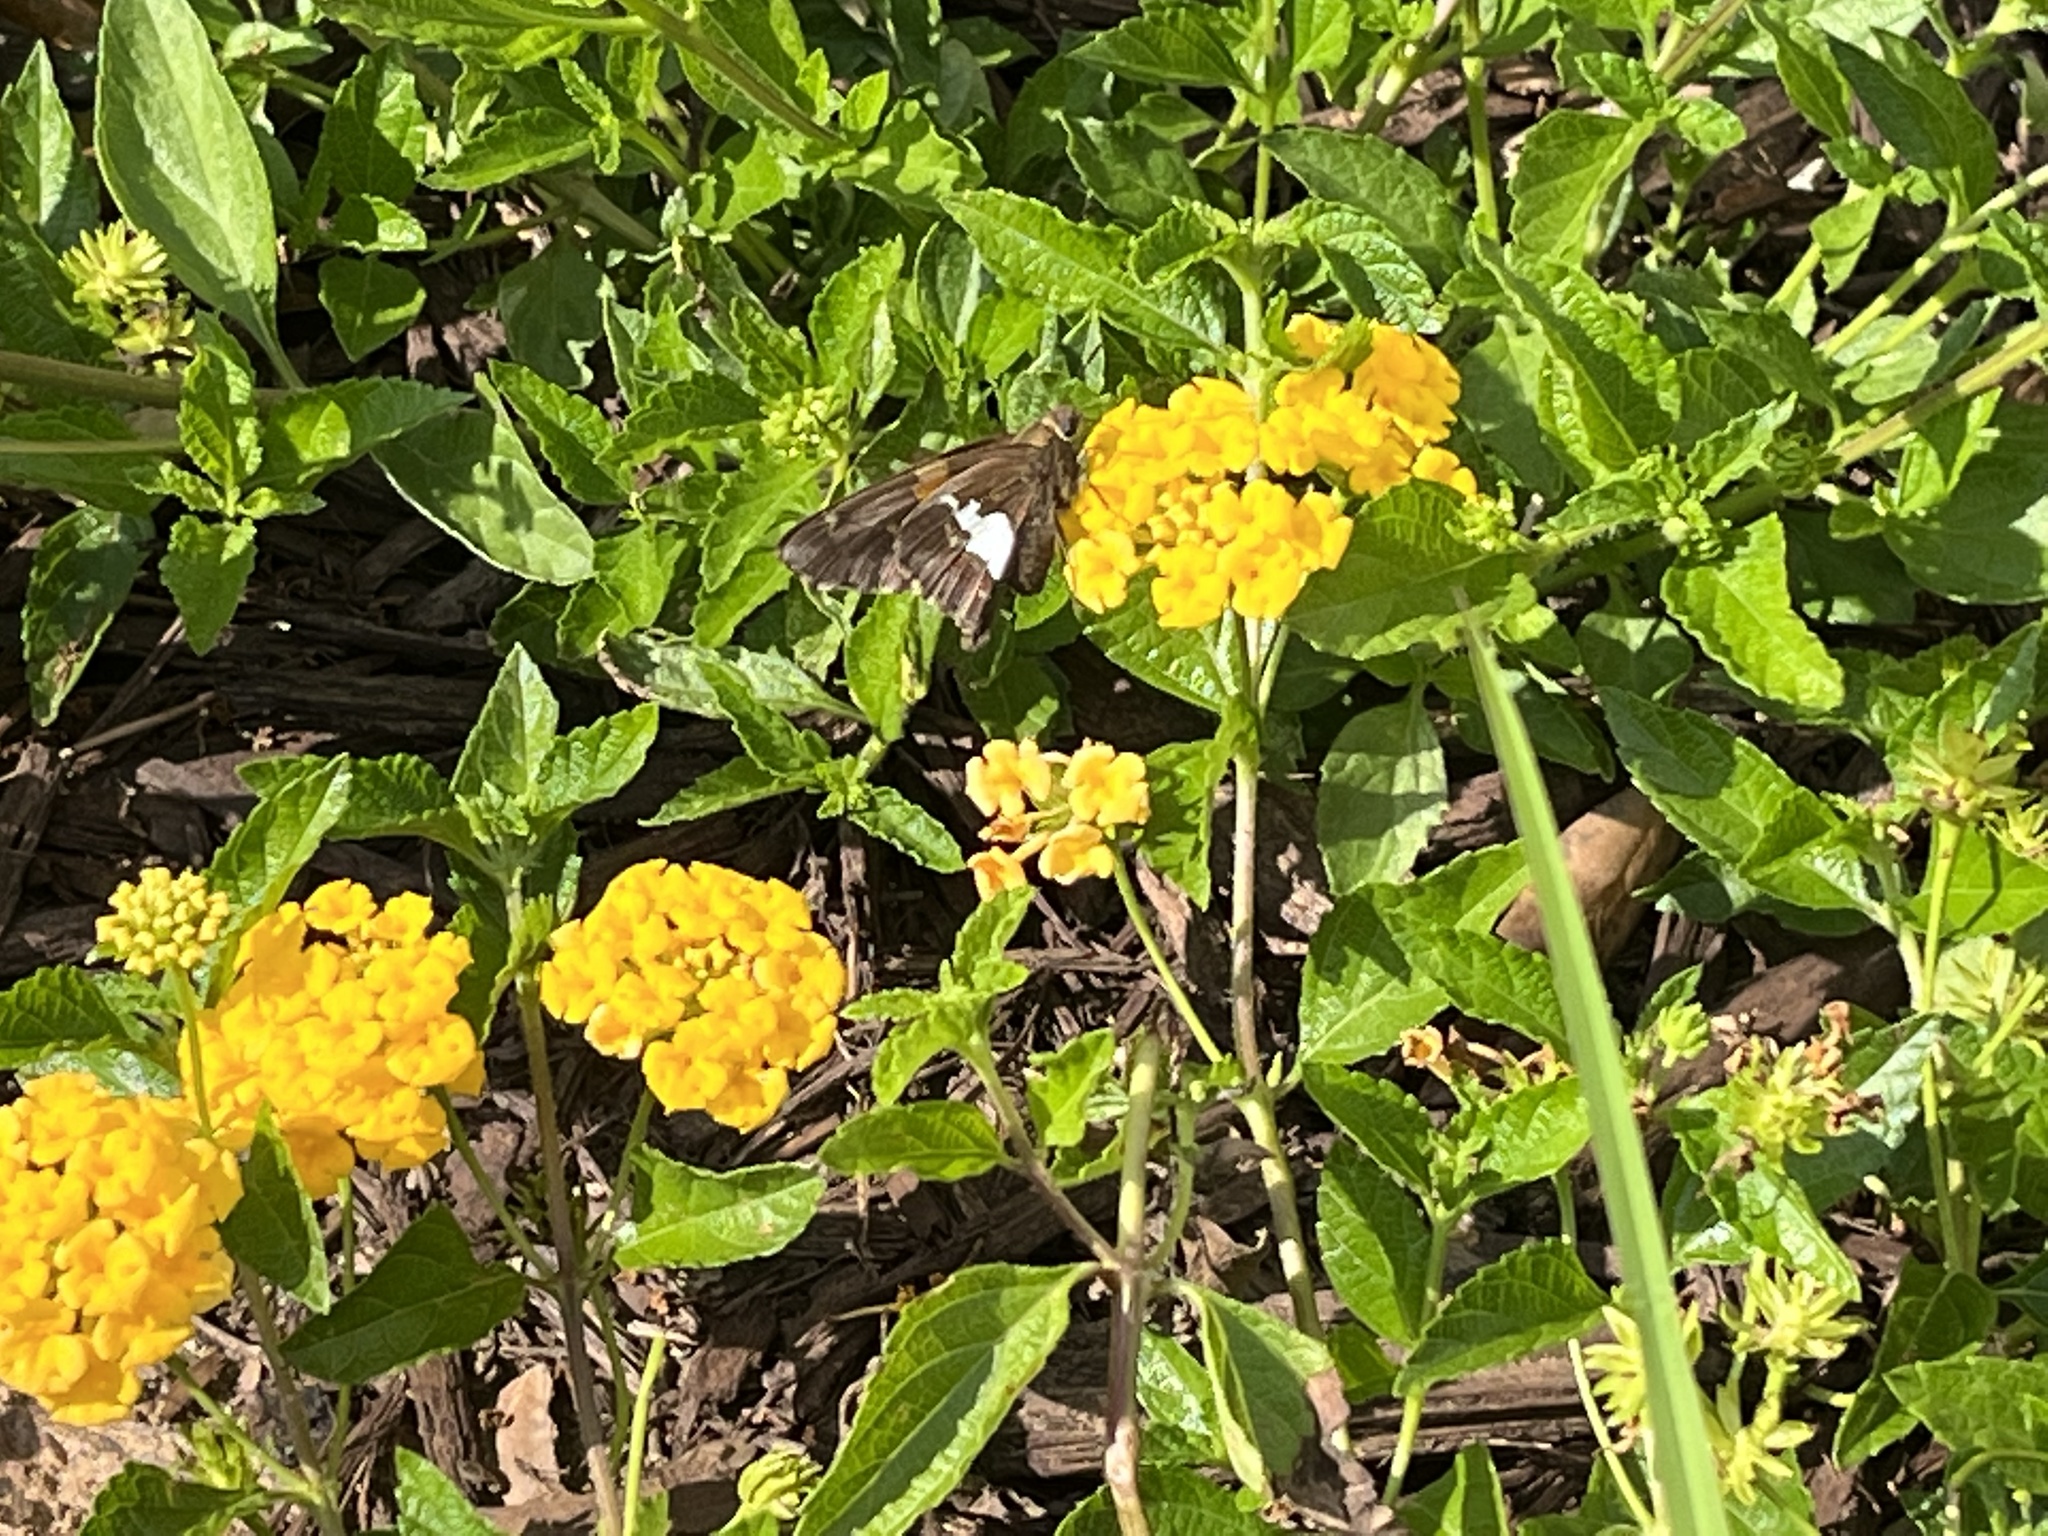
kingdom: Animalia
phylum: Arthropoda
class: Insecta
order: Lepidoptera
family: Hesperiidae
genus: Epargyreus
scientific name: Epargyreus clarus
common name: Silver-spotted skipper
